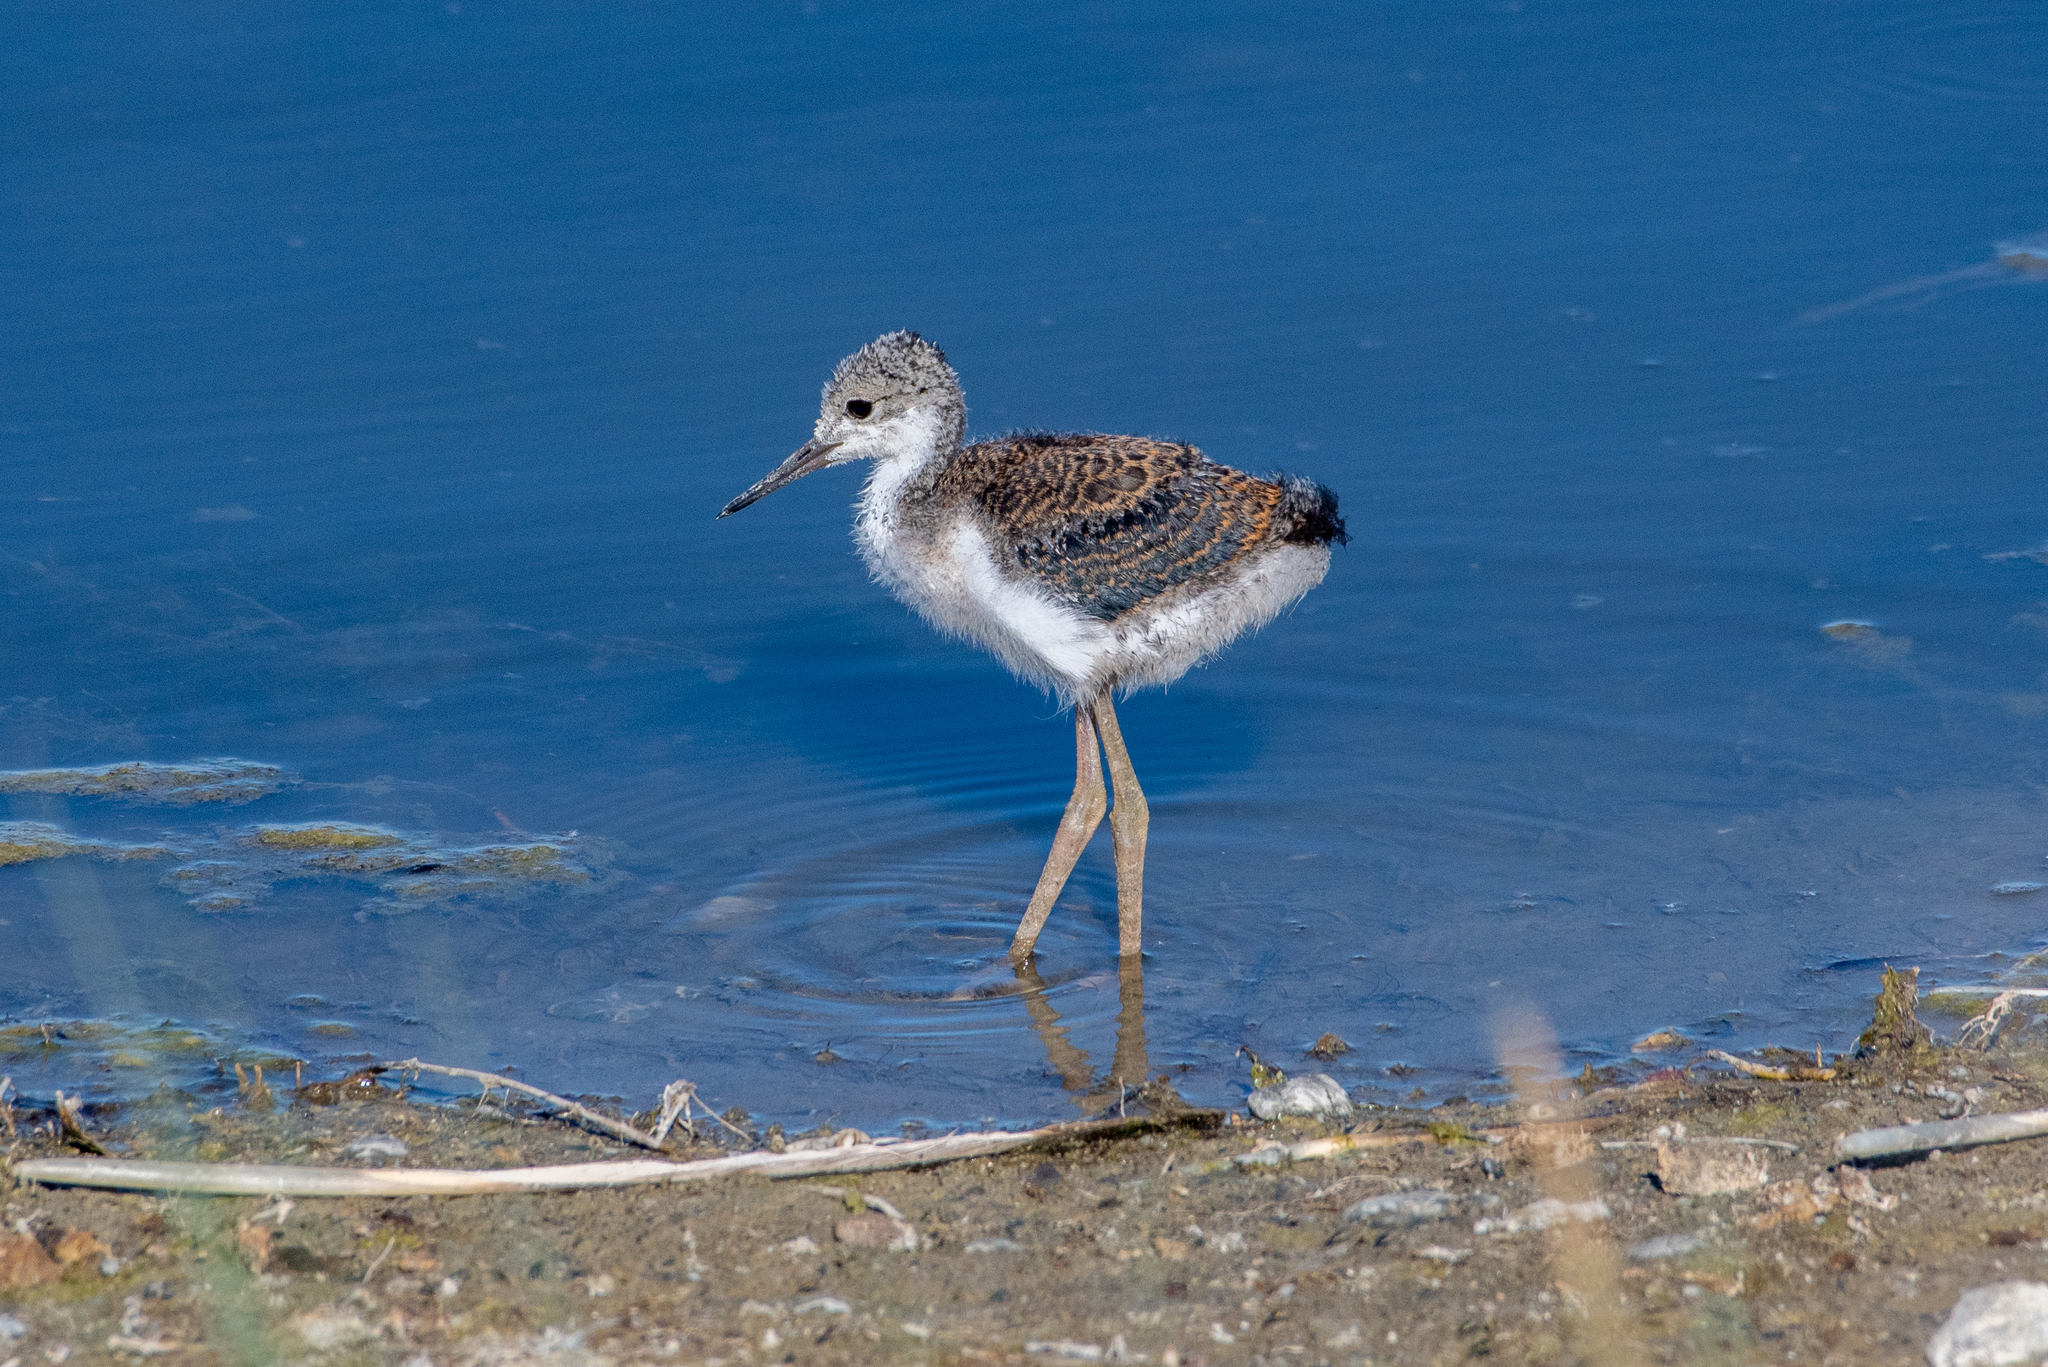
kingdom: Animalia
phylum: Chordata
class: Aves
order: Charadriiformes
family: Recurvirostridae
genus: Himantopus
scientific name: Himantopus mexicanus
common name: Black-necked stilt
